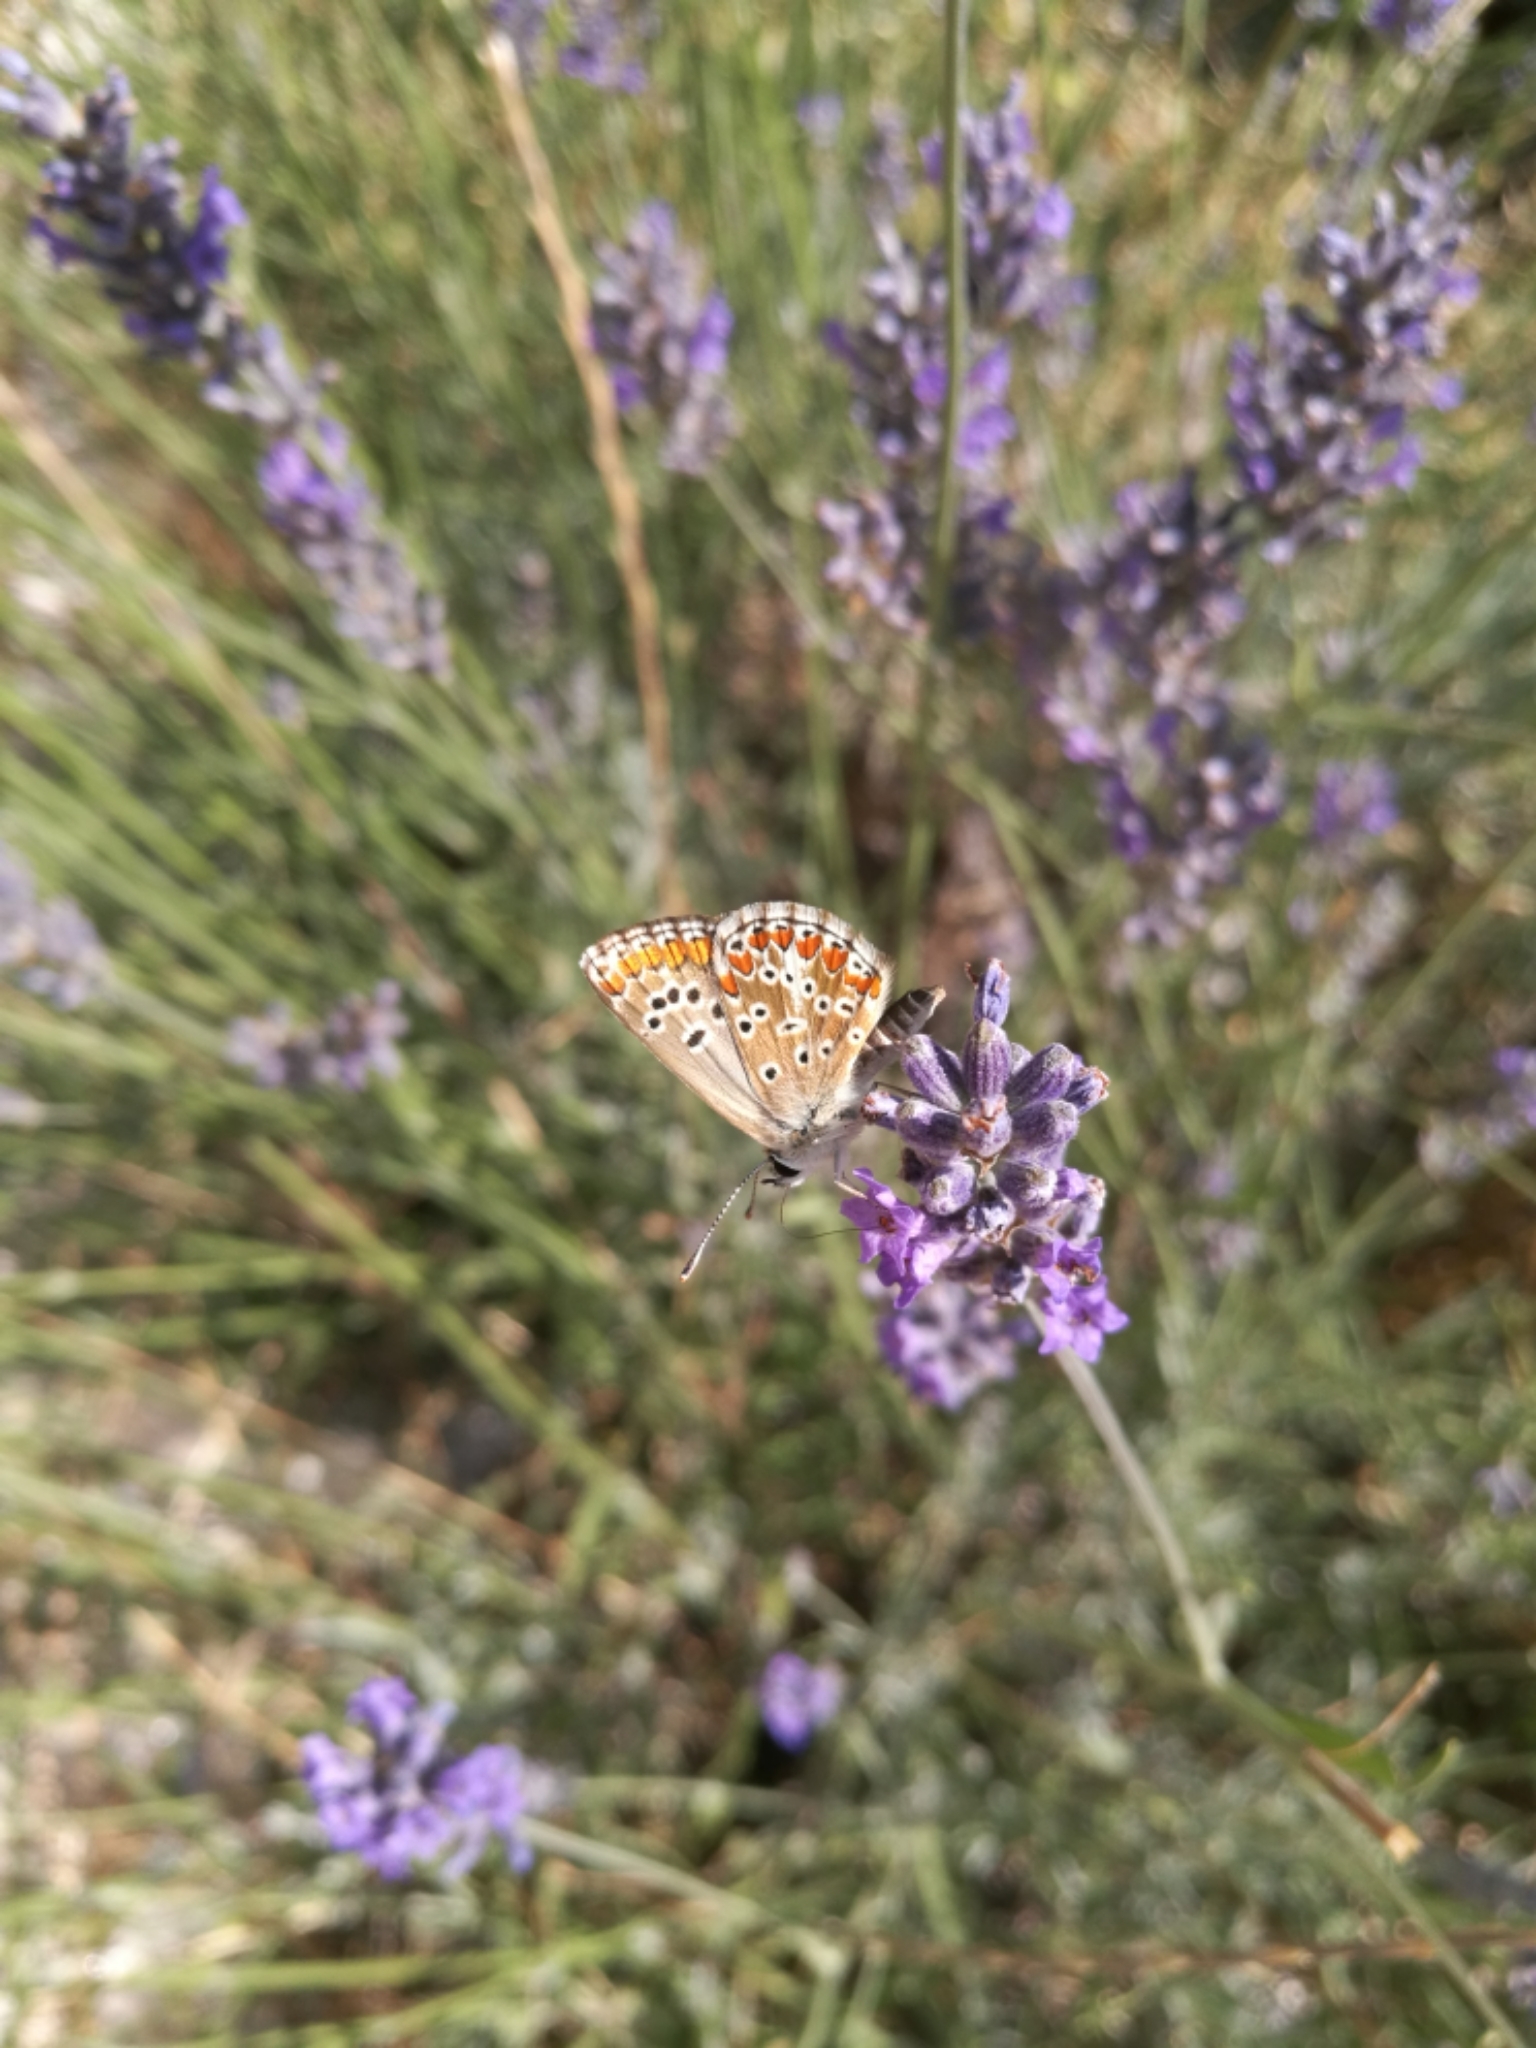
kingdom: Animalia
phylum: Arthropoda
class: Insecta
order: Lepidoptera
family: Lycaenidae
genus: Aricia
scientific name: Aricia agestis
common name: Brown argus
